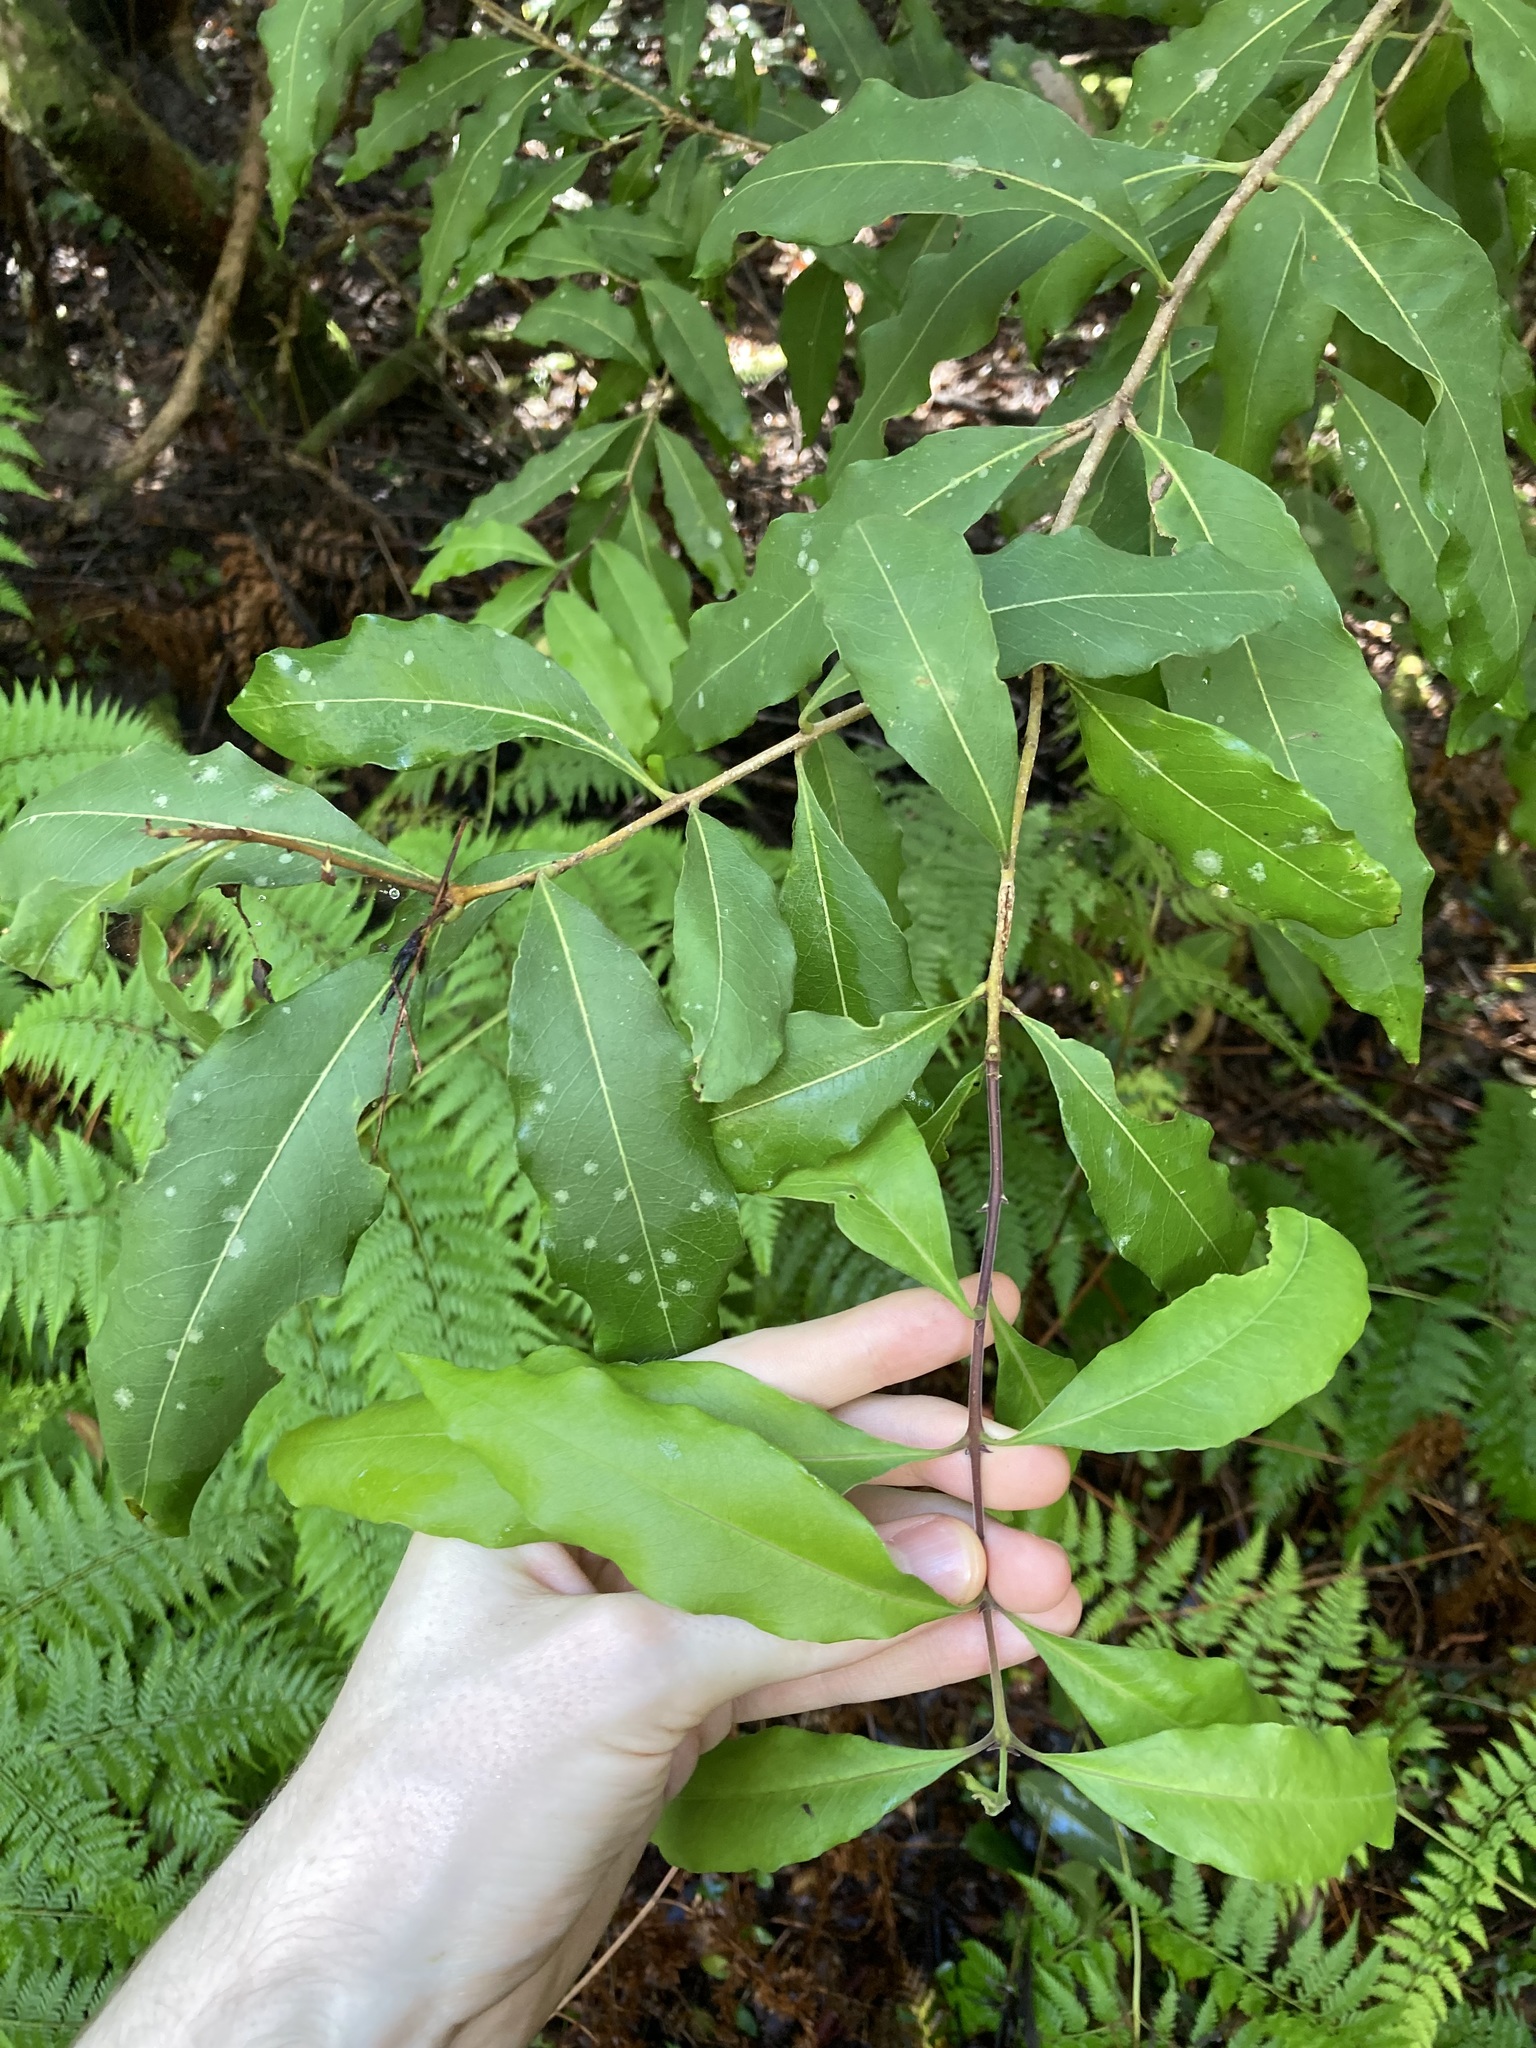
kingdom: Plantae
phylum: Tracheophyta
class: Magnoliopsida
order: Lamiales
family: Oleaceae
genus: Notelaea
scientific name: Notelaea longifolia
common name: Large mock olive
